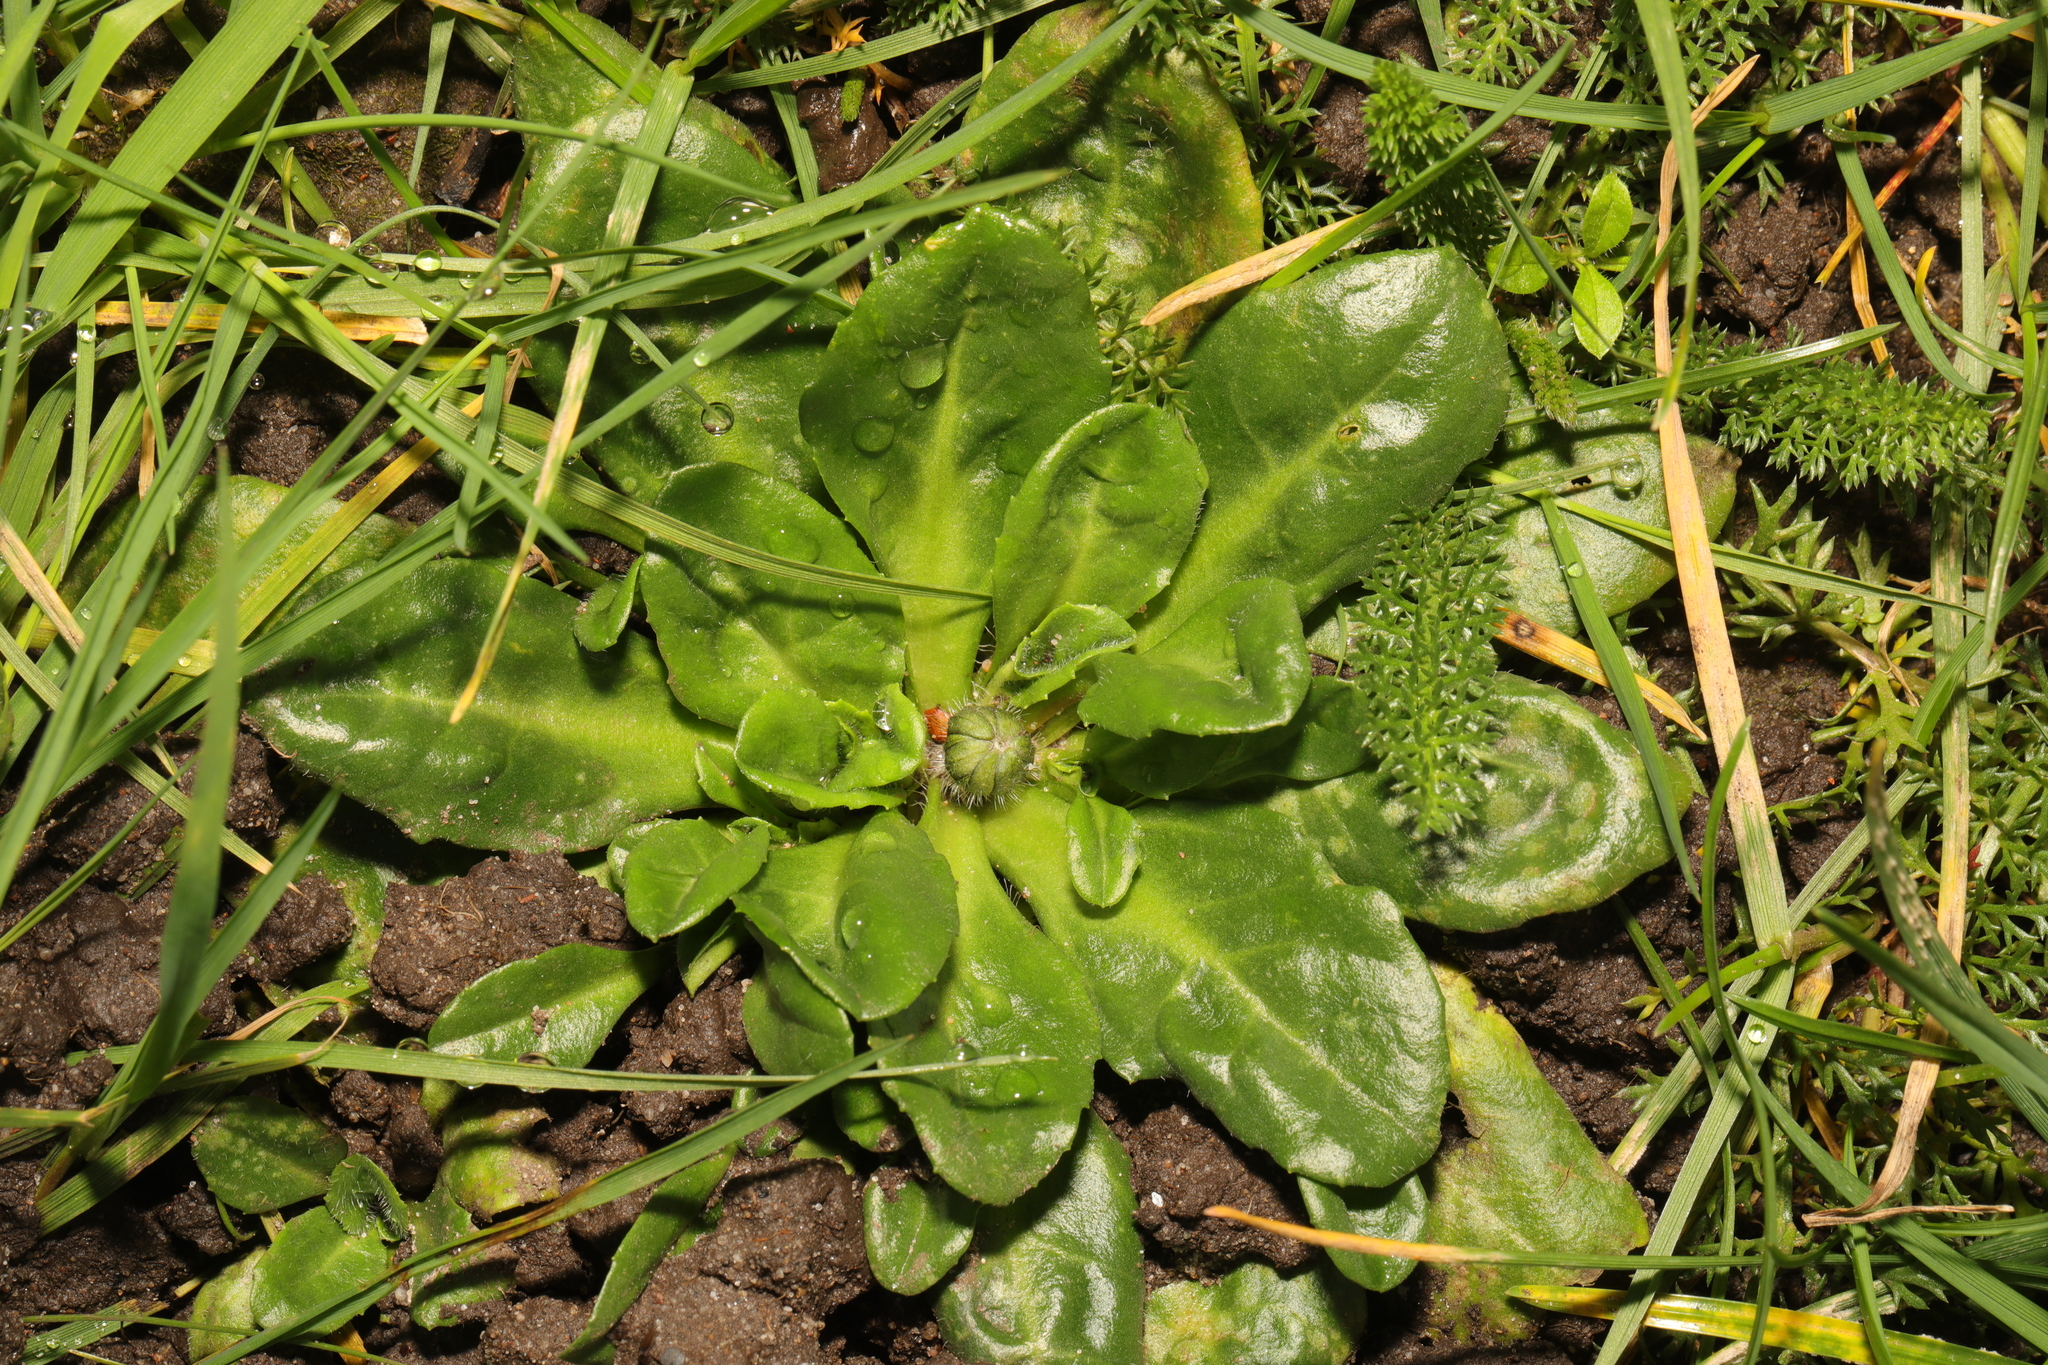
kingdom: Plantae
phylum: Tracheophyta
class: Magnoliopsida
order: Asterales
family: Asteraceae
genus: Bellis
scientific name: Bellis perennis
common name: Lawndaisy
